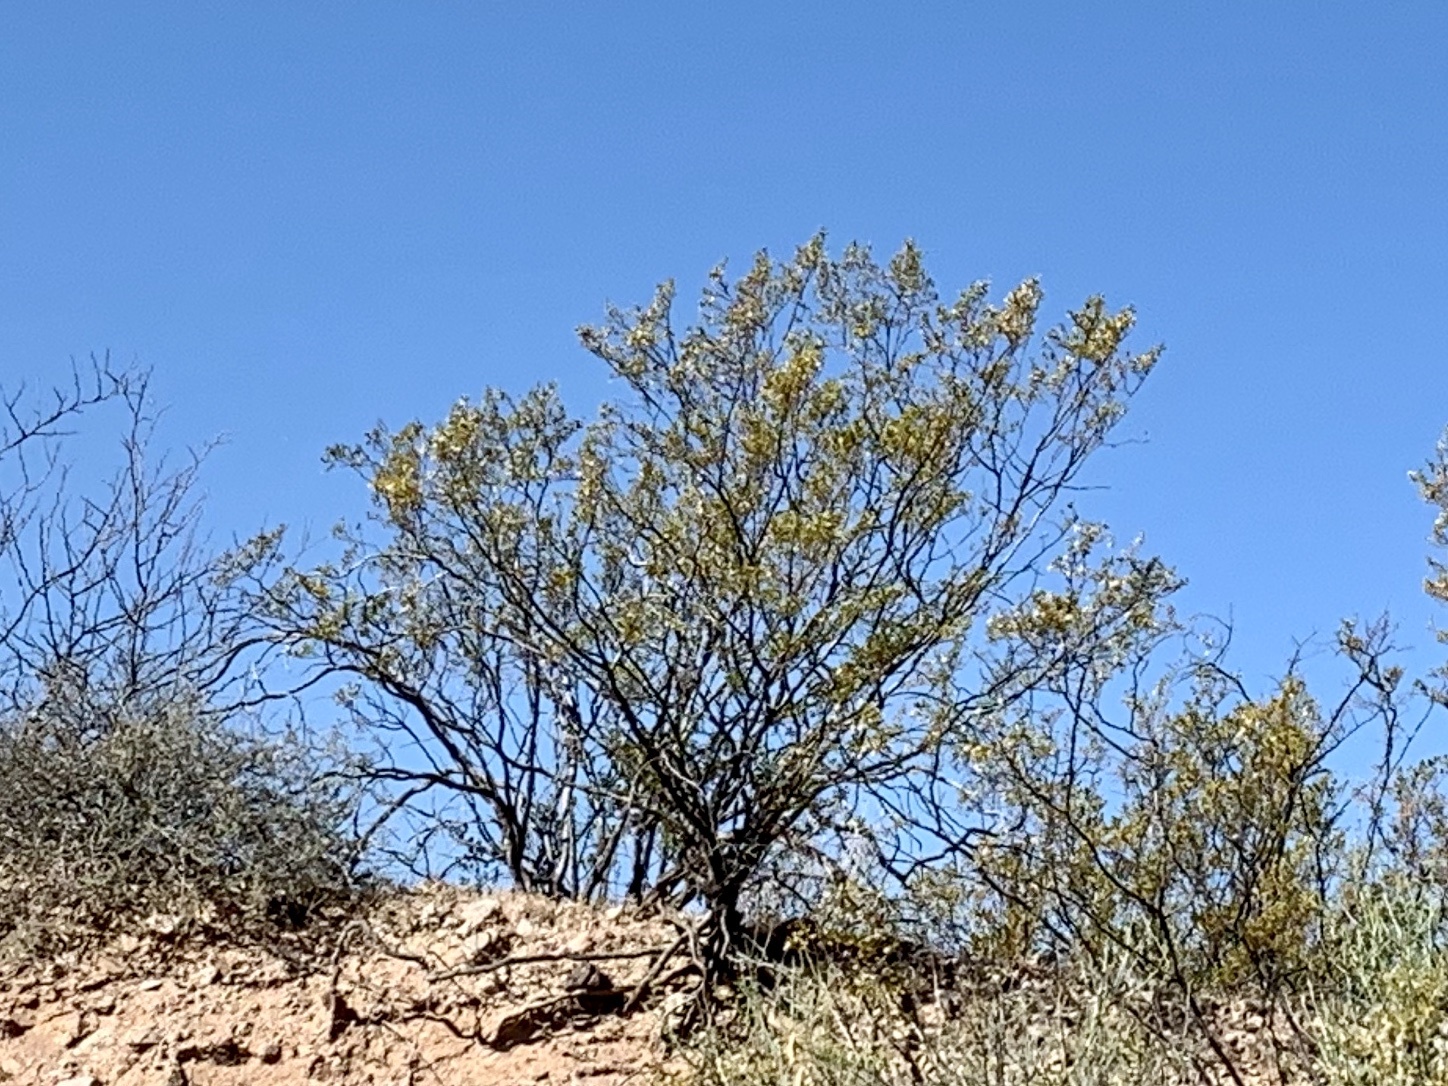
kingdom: Plantae
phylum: Tracheophyta
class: Magnoliopsida
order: Zygophyllales
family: Zygophyllaceae
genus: Larrea
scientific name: Larrea tridentata
